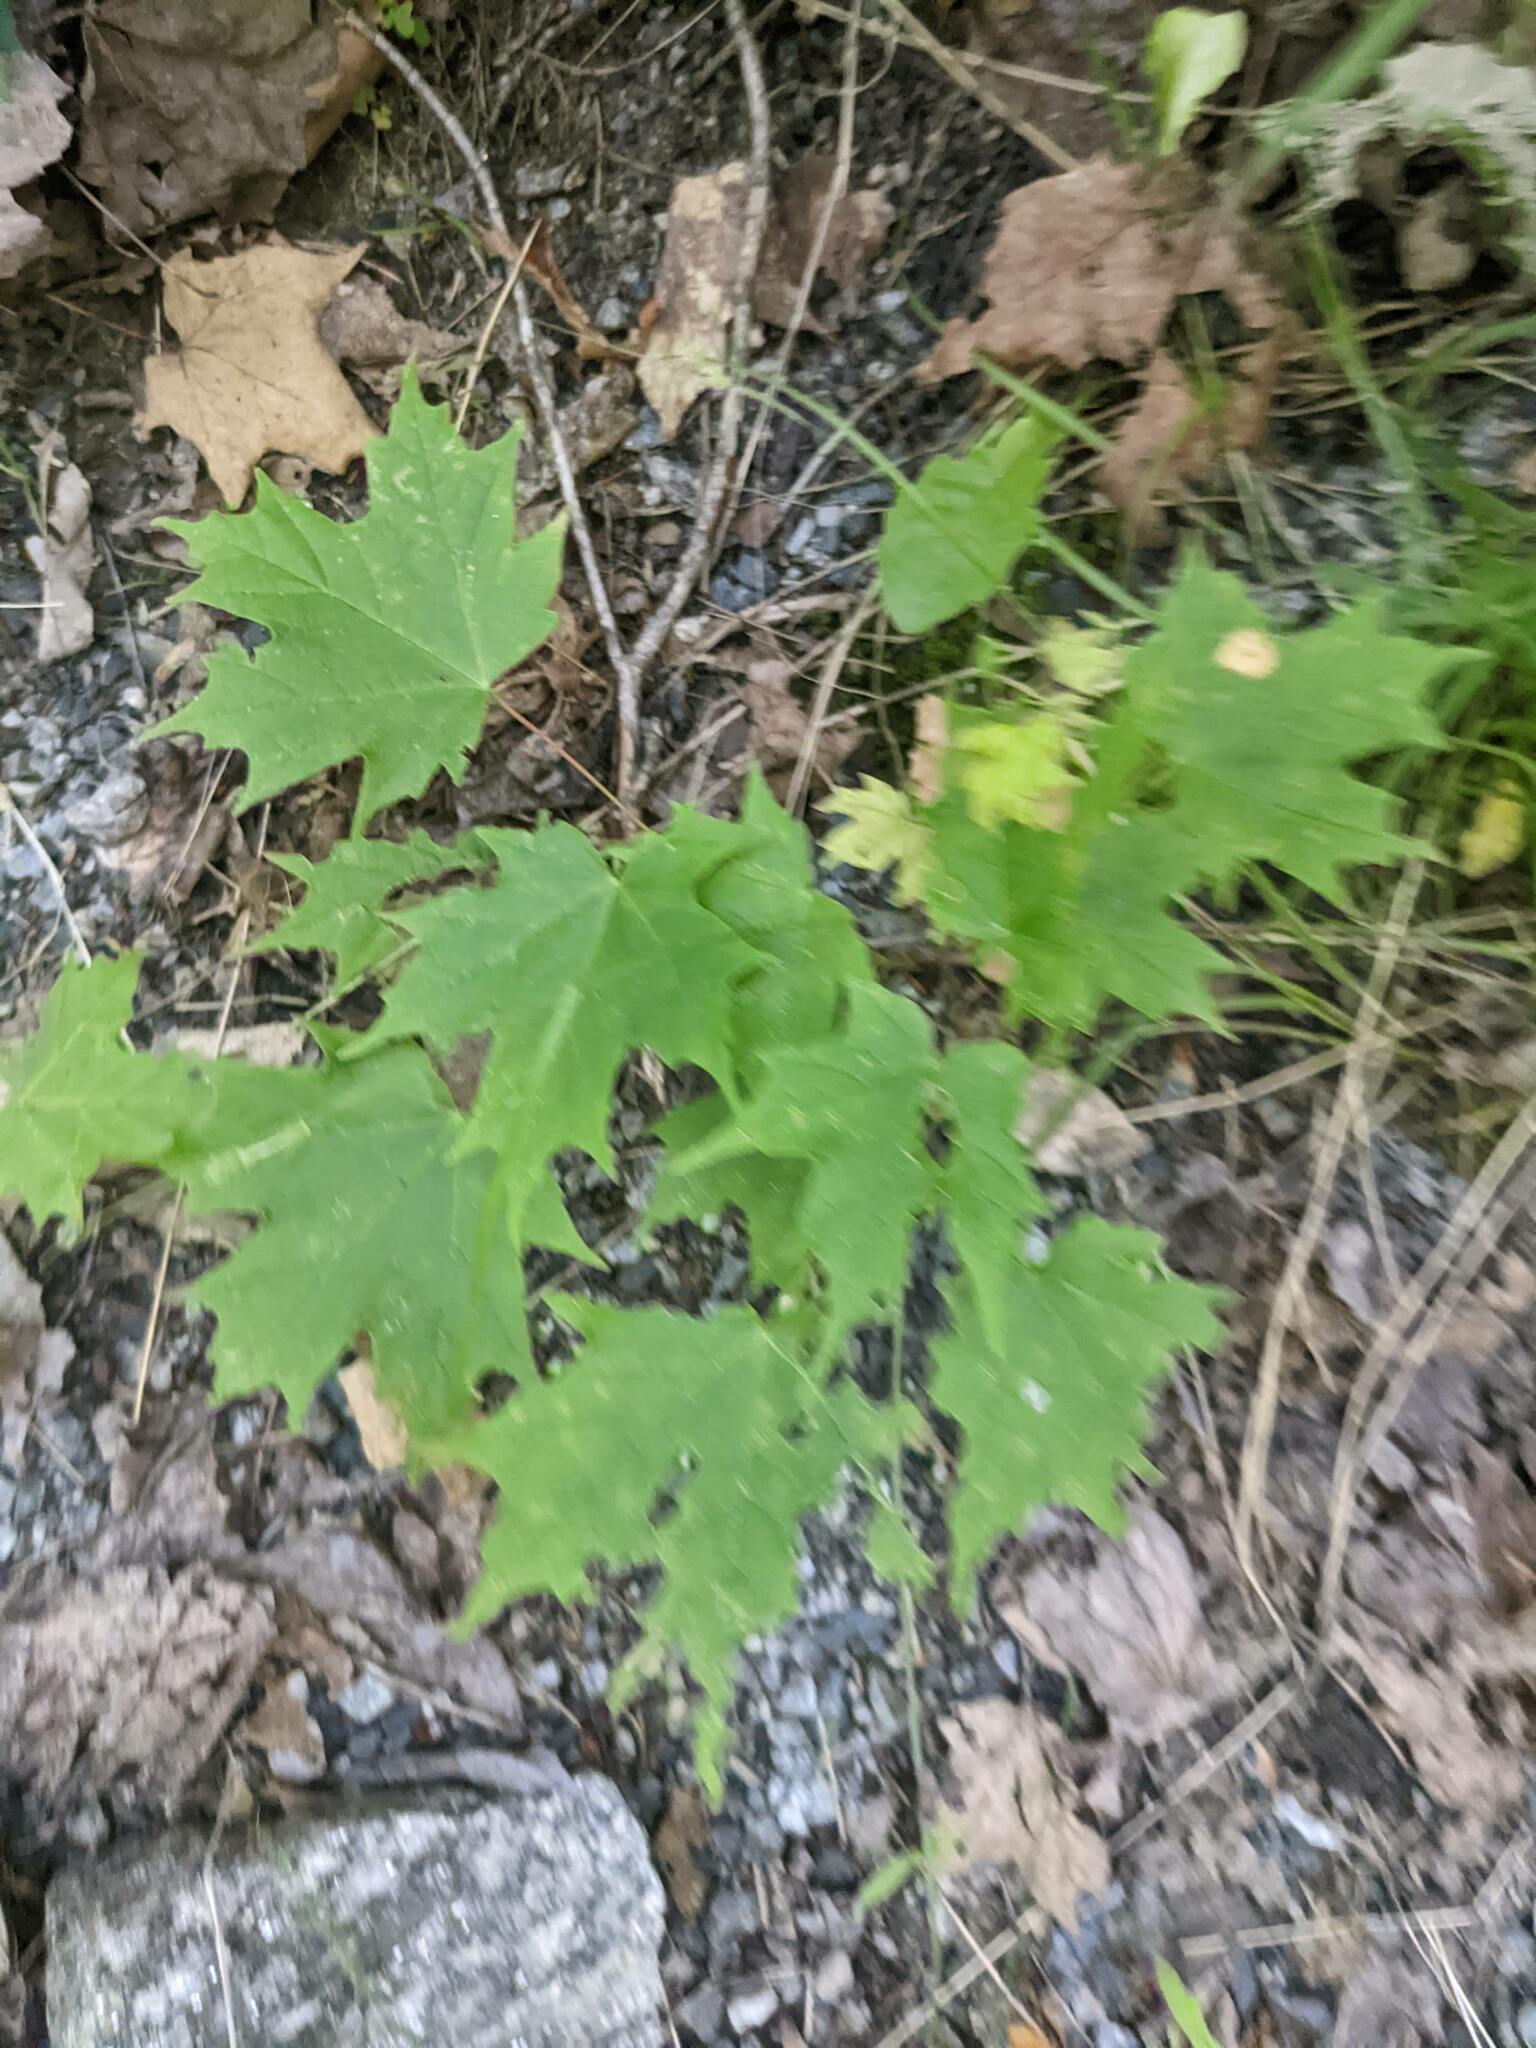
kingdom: Plantae
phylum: Tracheophyta
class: Magnoliopsida
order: Sapindales
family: Sapindaceae
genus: Acer
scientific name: Acer saccharum
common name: Sugar maple
